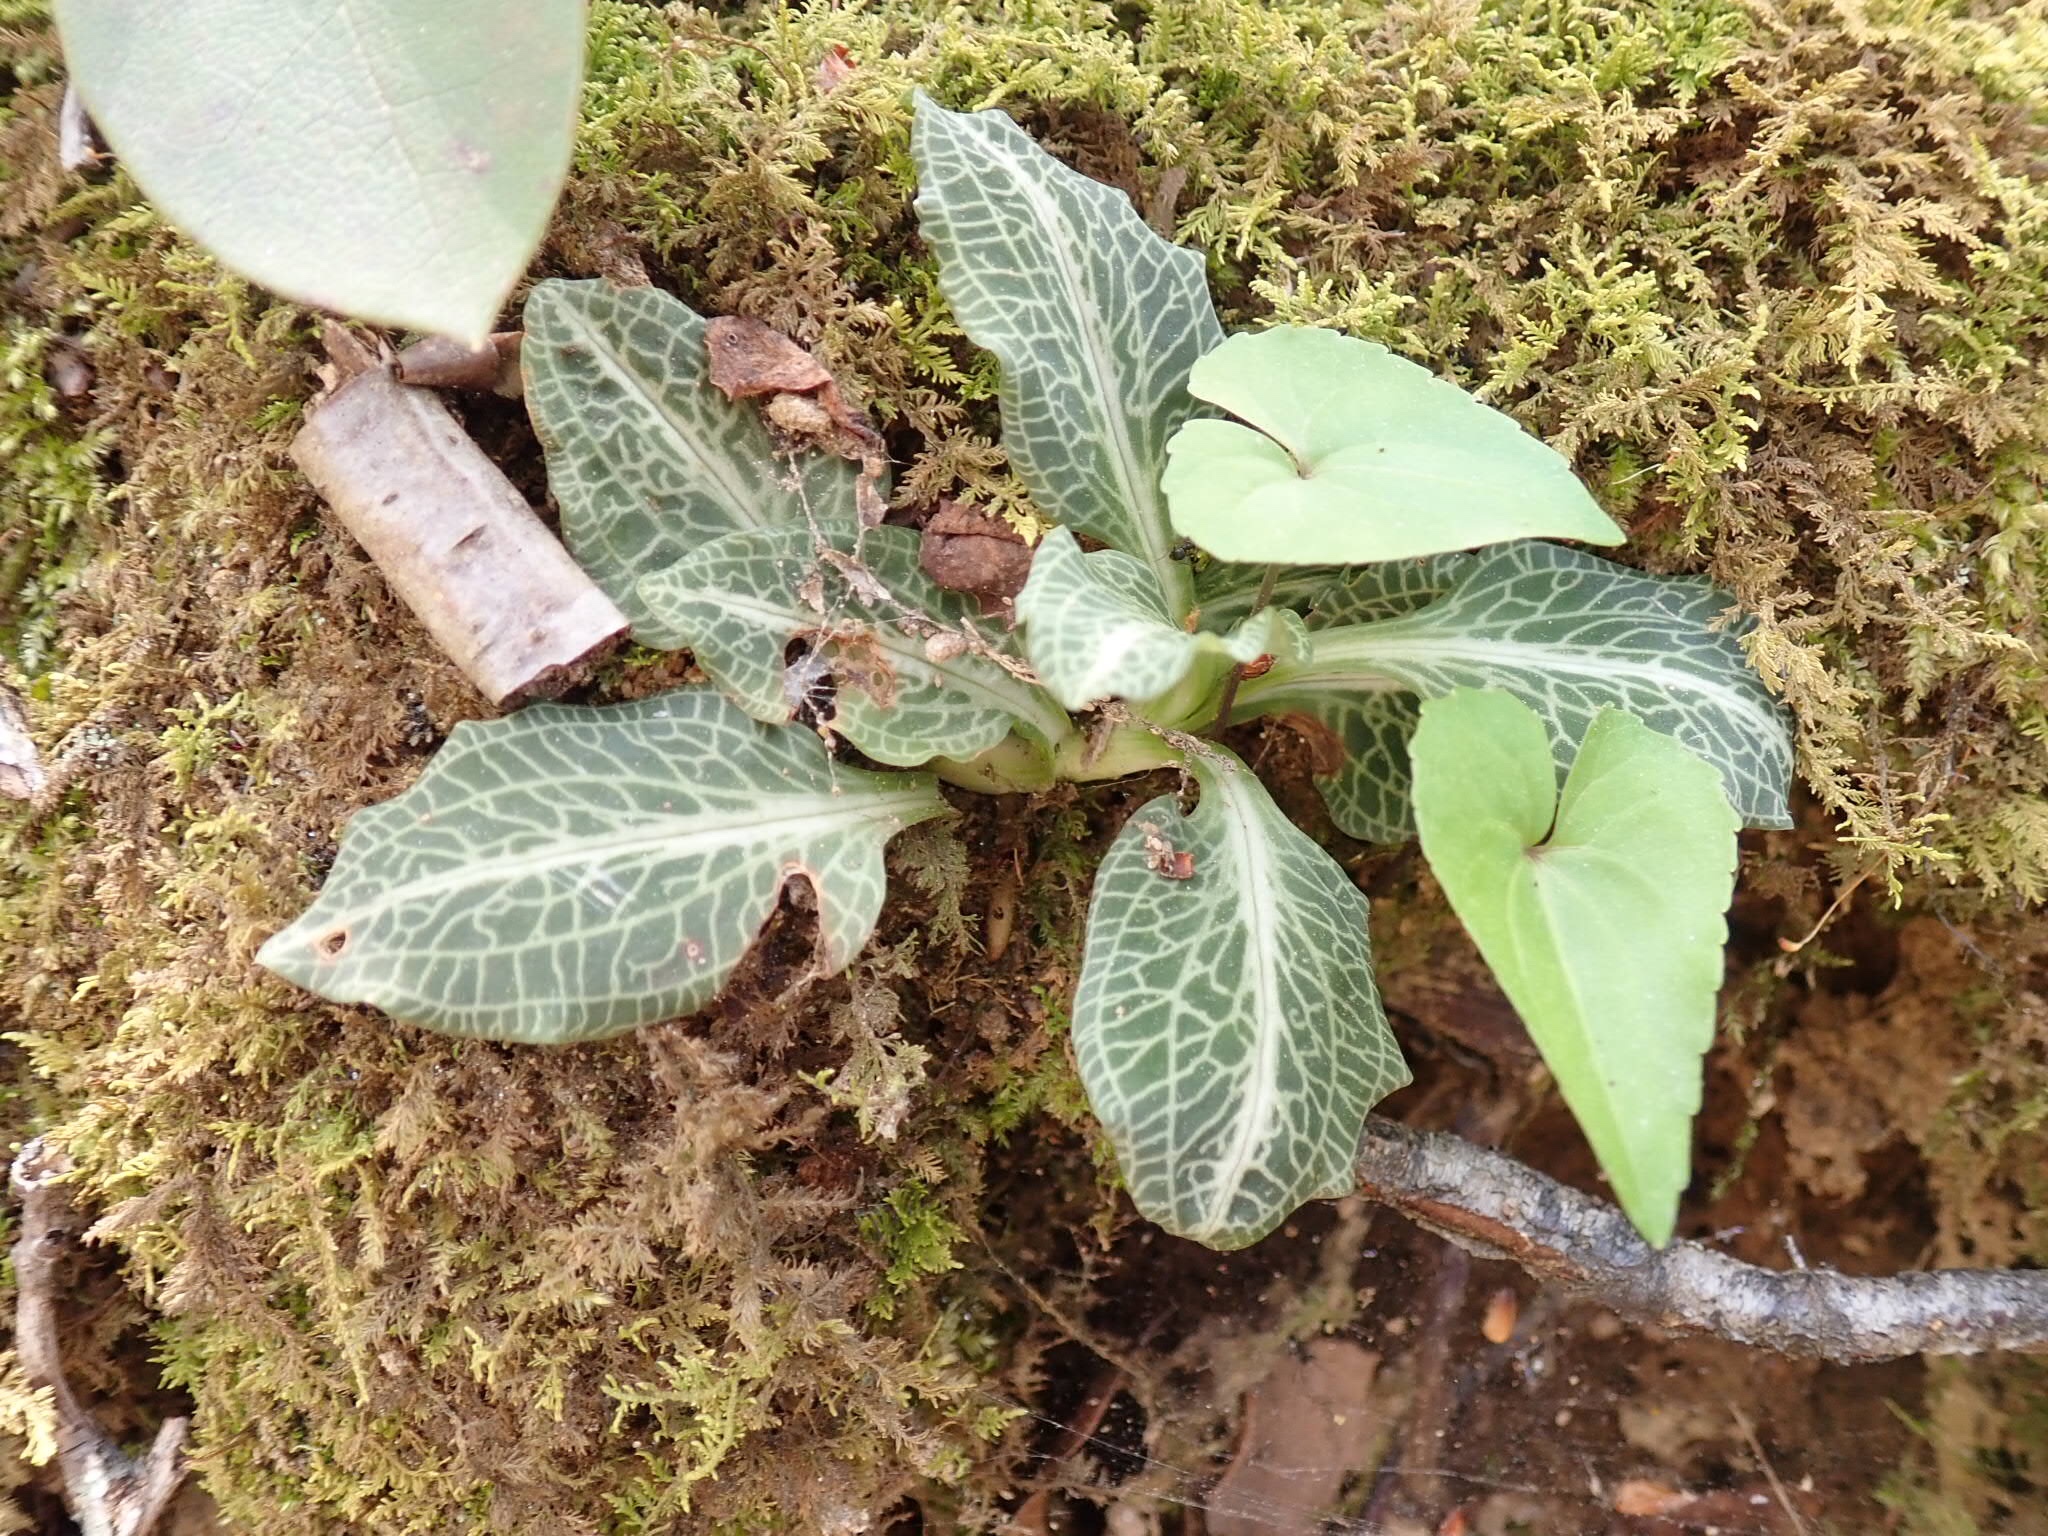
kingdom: Plantae
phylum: Tracheophyta
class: Liliopsida
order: Asparagales
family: Orchidaceae
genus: Goodyera
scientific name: Goodyera pubescens
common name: Downy rattlesnake-plantain
